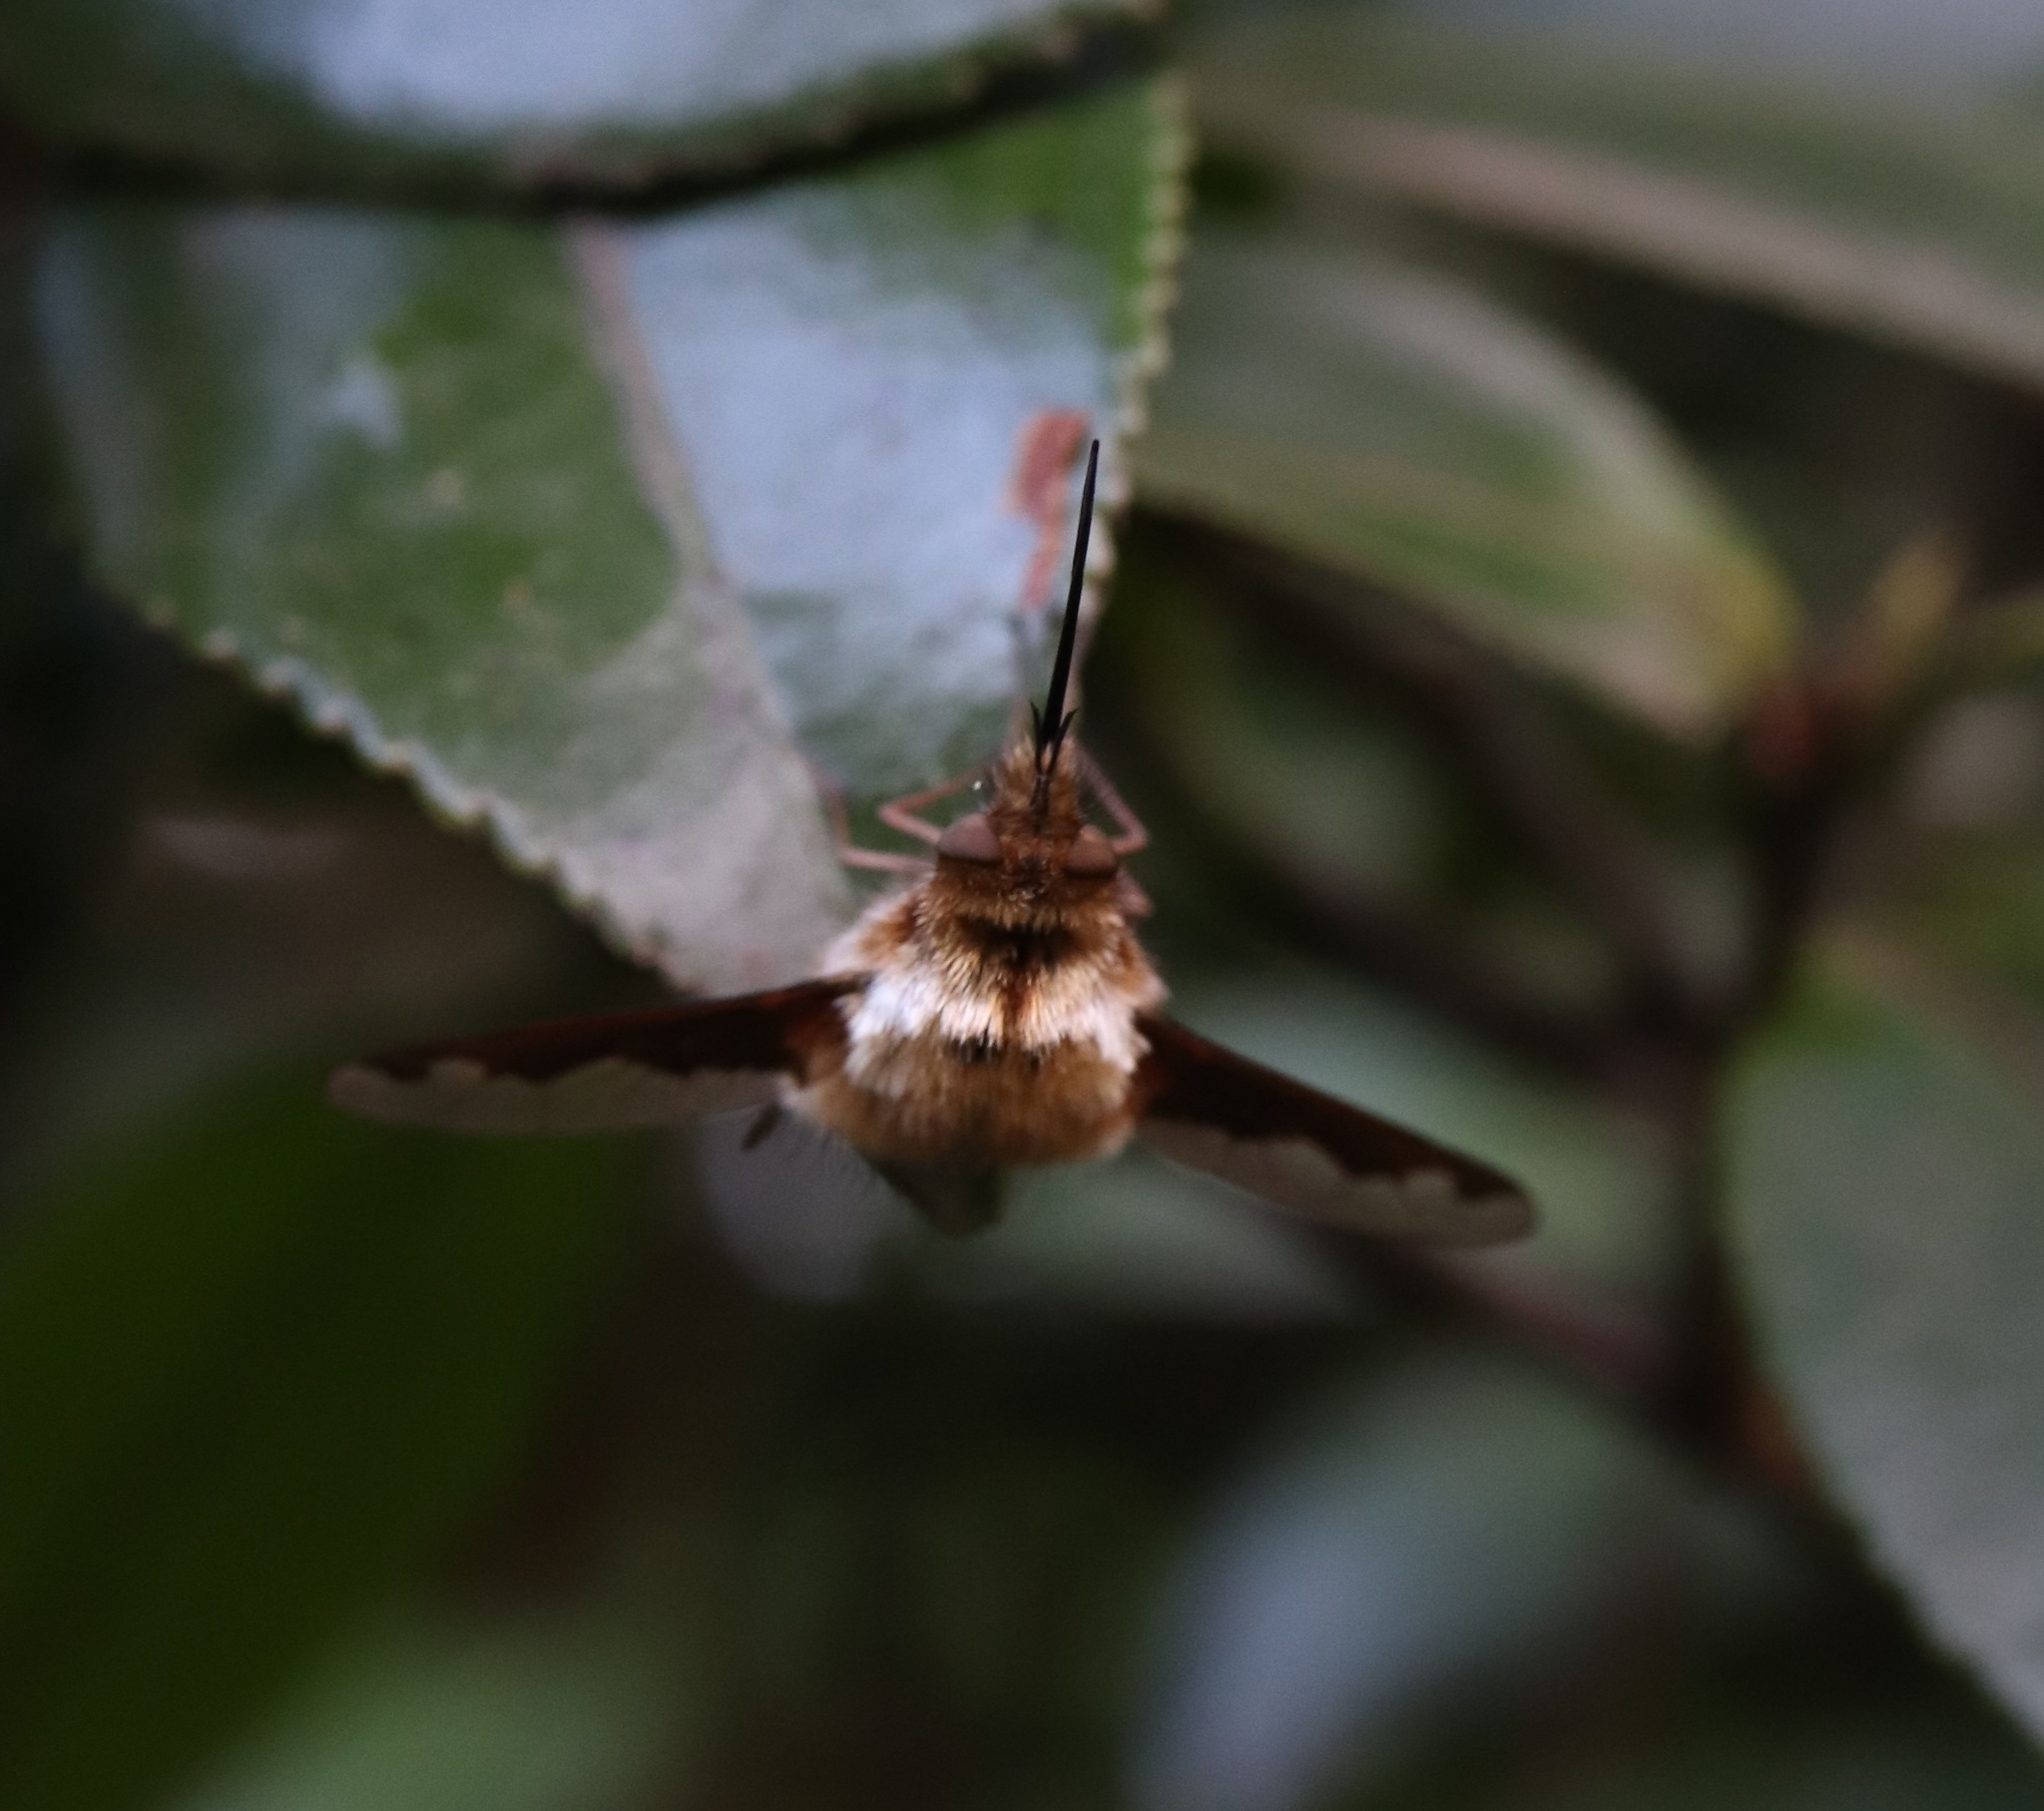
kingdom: Animalia
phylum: Arthropoda
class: Insecta
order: Diptera
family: Bombyliidae
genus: Bombylius
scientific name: Bombylius major
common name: Bee fly
